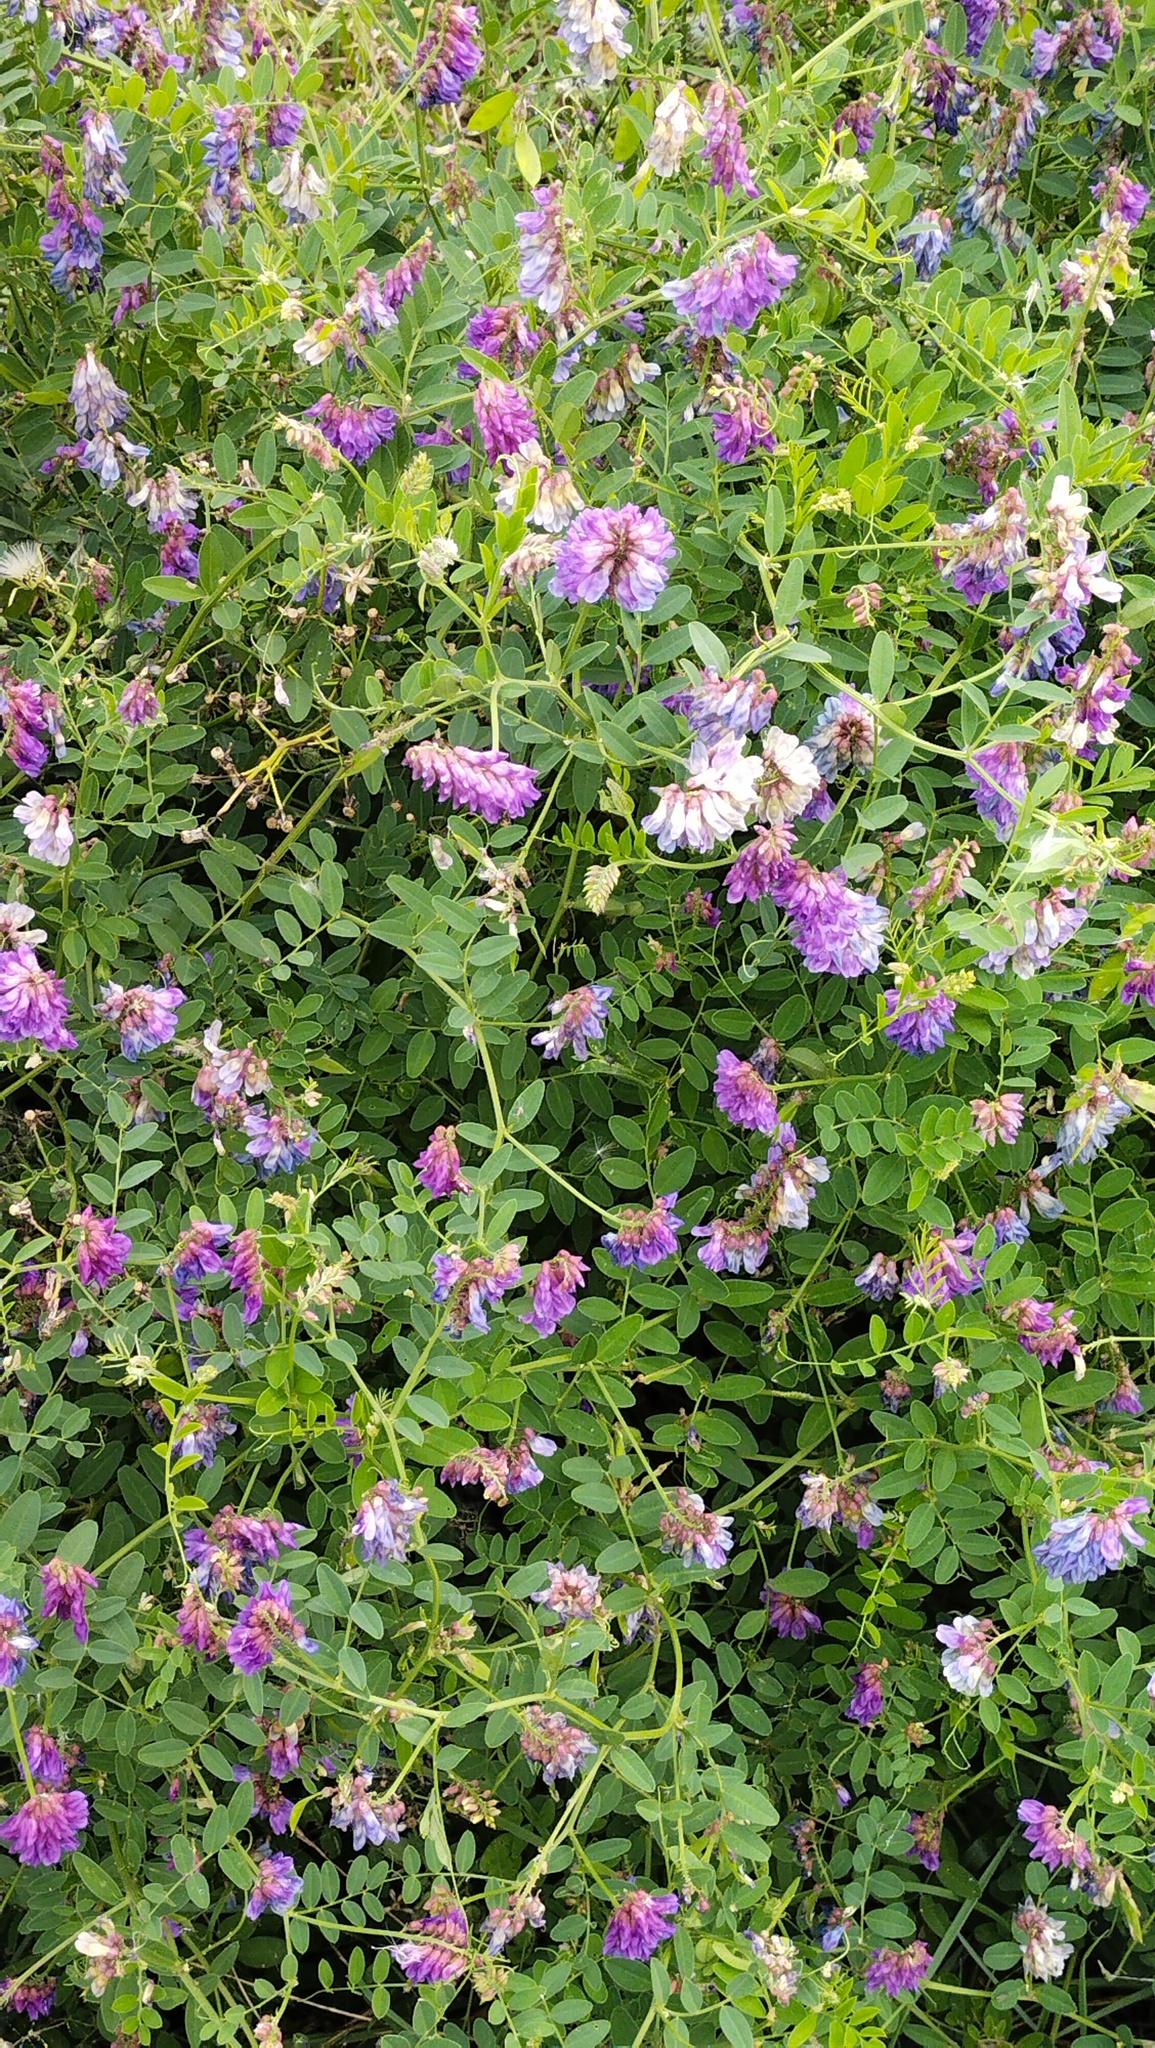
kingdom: Plantae
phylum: Tracheophyta
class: Magnoliopsida
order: Fabales
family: Fabaceae
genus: Vicia
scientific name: Vicia amurensis
